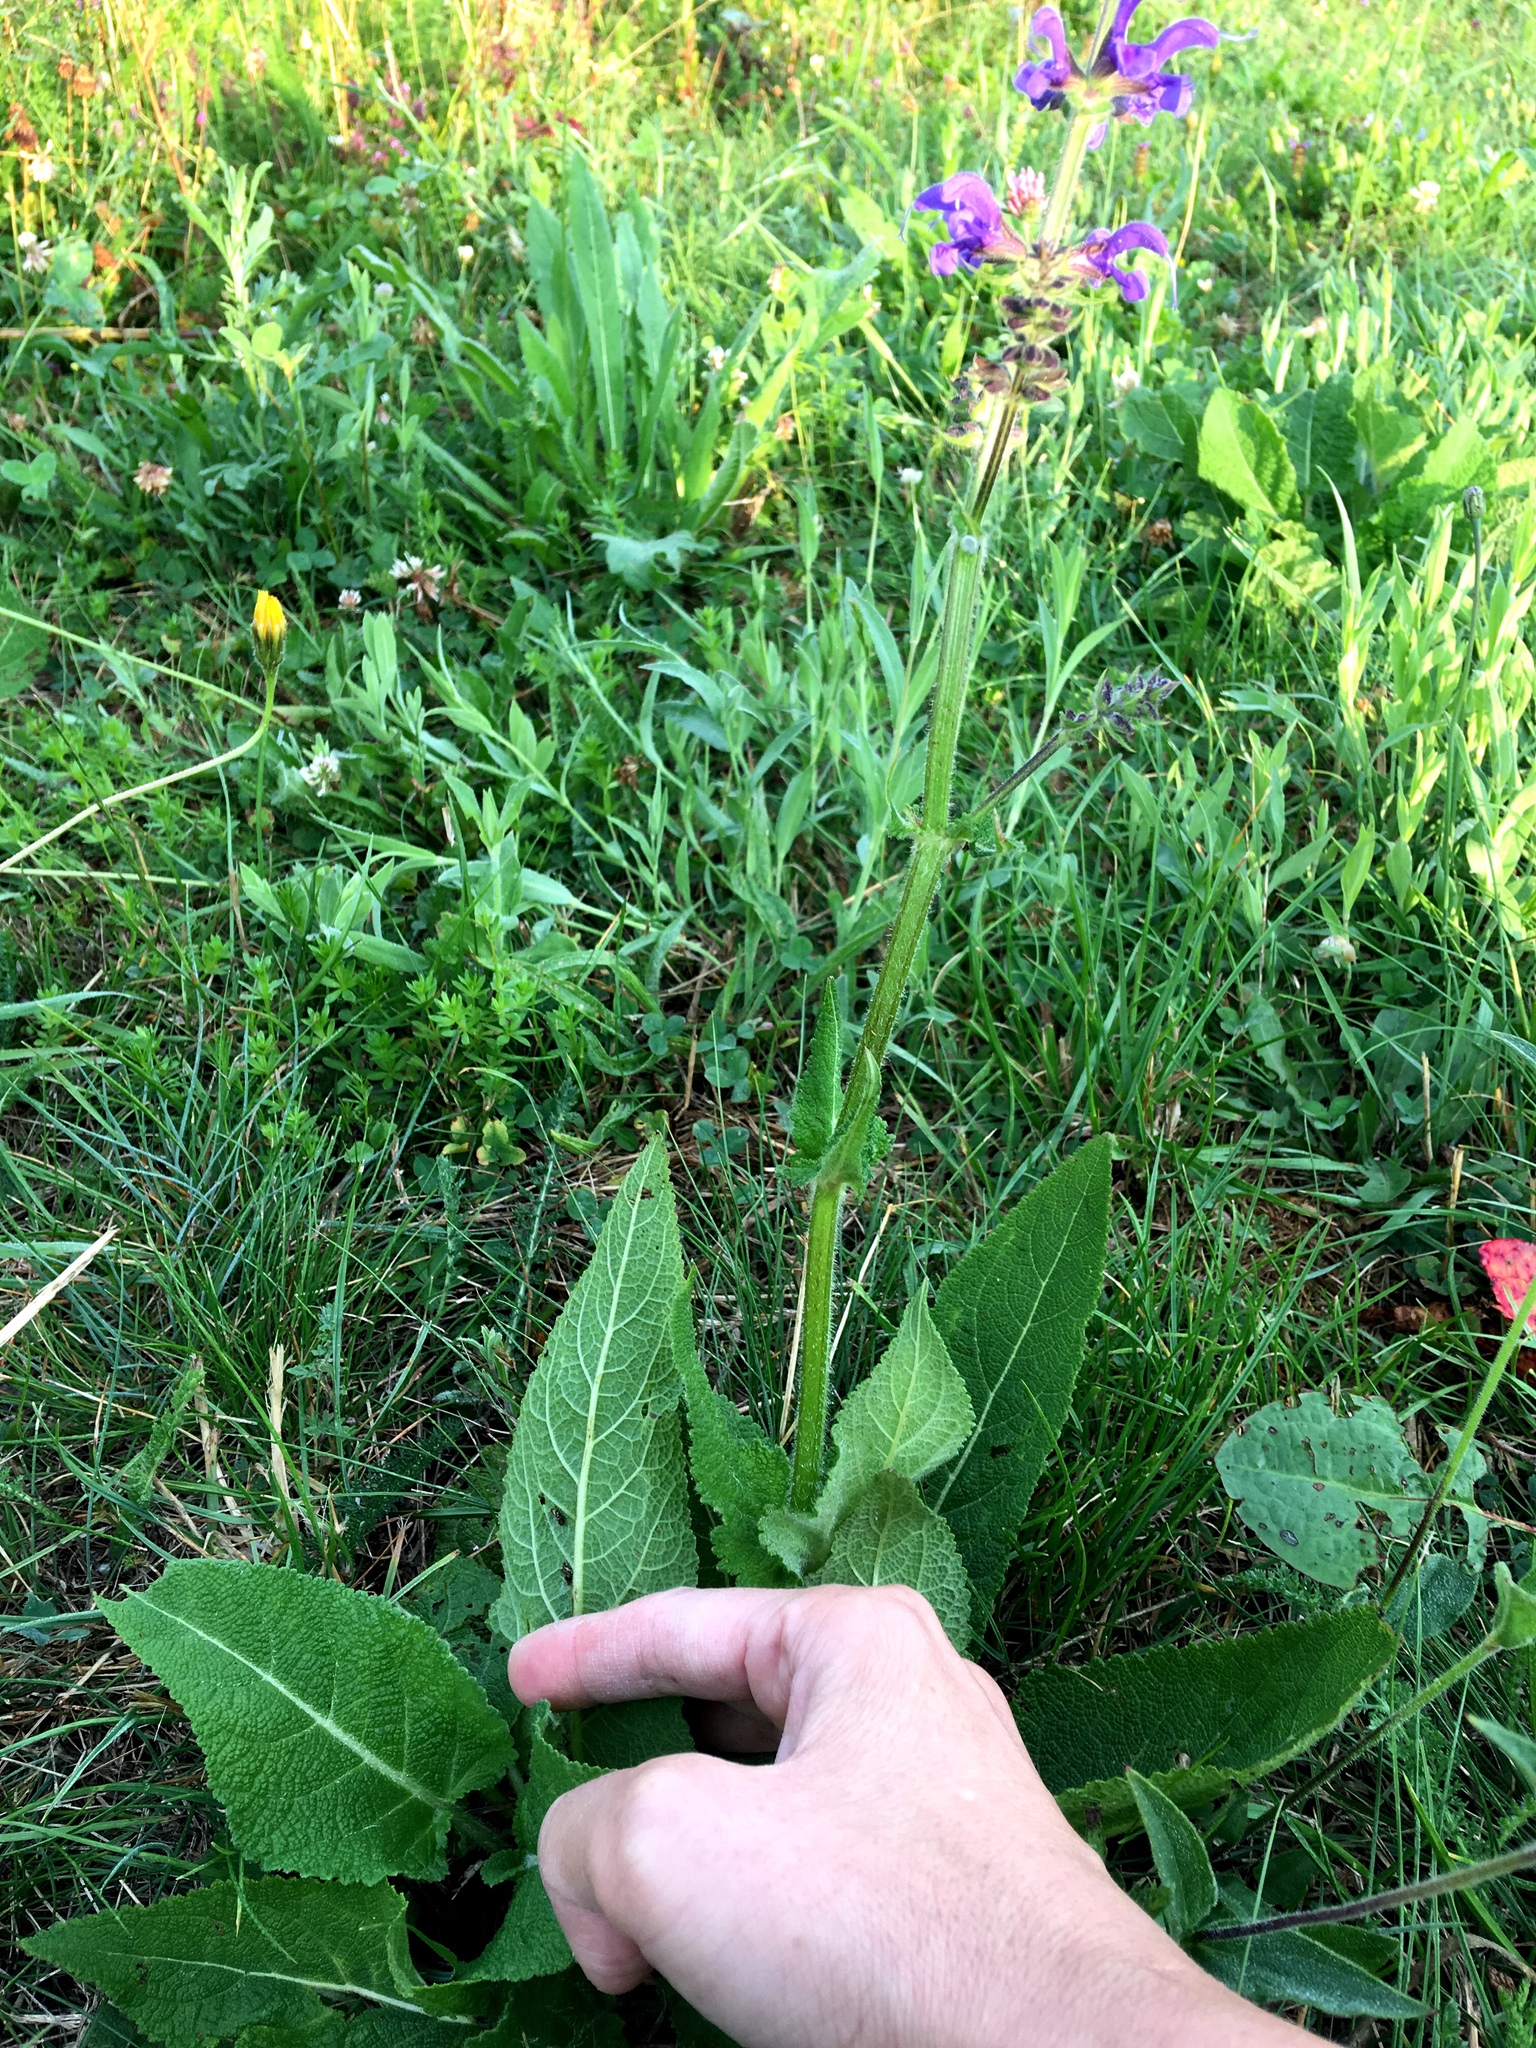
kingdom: Plantae
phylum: Tracheophyta
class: Magnoliopsida
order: Lamiales
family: Lamiaceae
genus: Salvia
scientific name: Salvia pratensis
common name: Meadow sage
